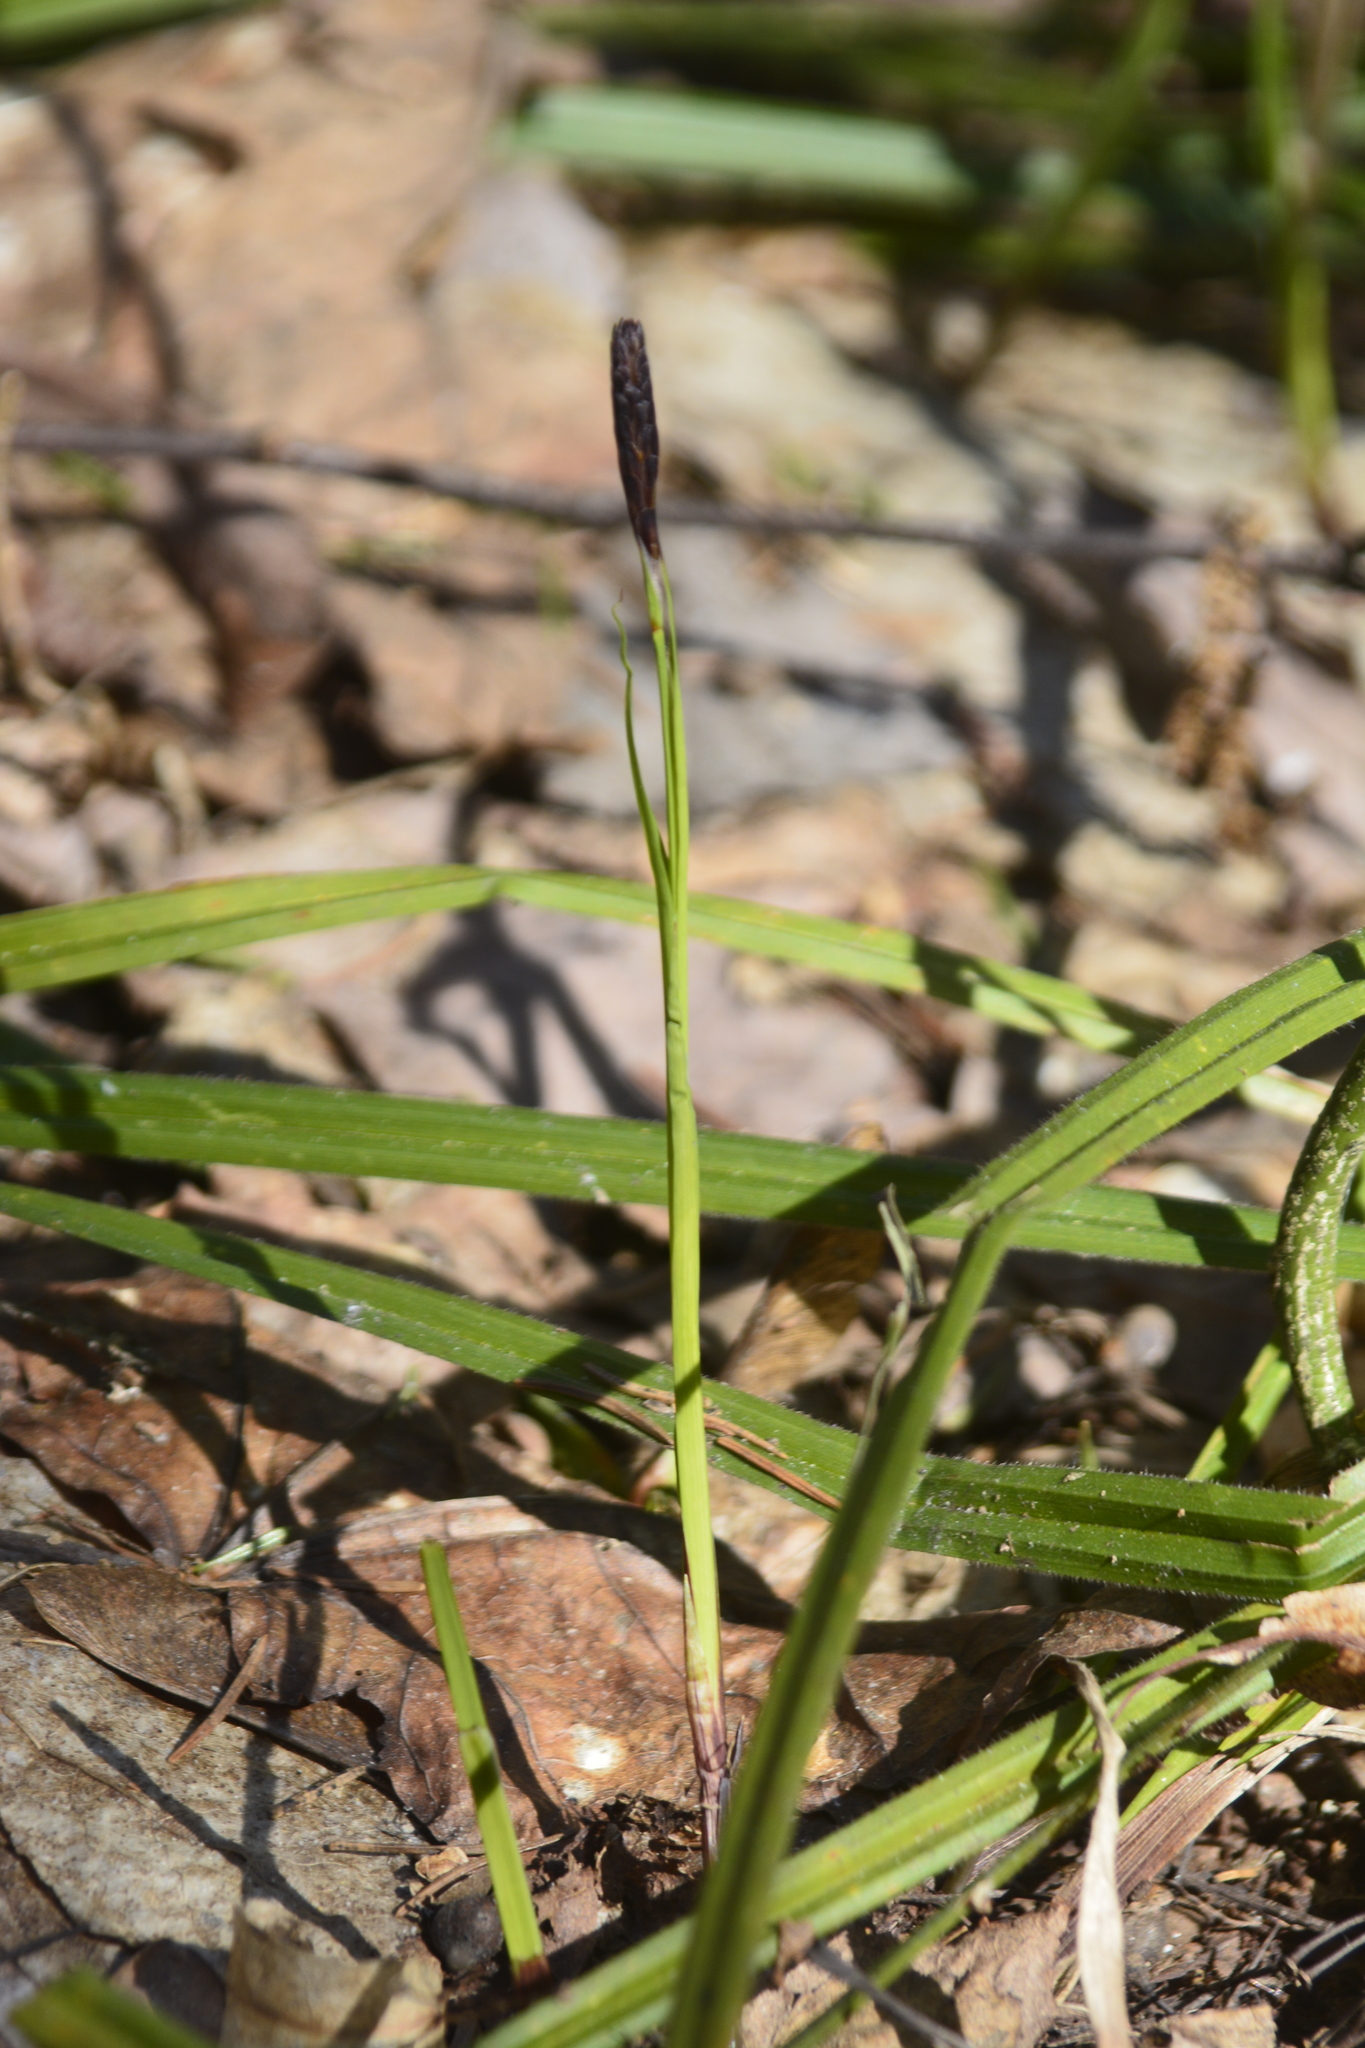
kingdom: Plantae
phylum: Tracheophyta
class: Liliopsida
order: Poales
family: Cyperaceae
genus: Carex
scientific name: Carex pilosa
